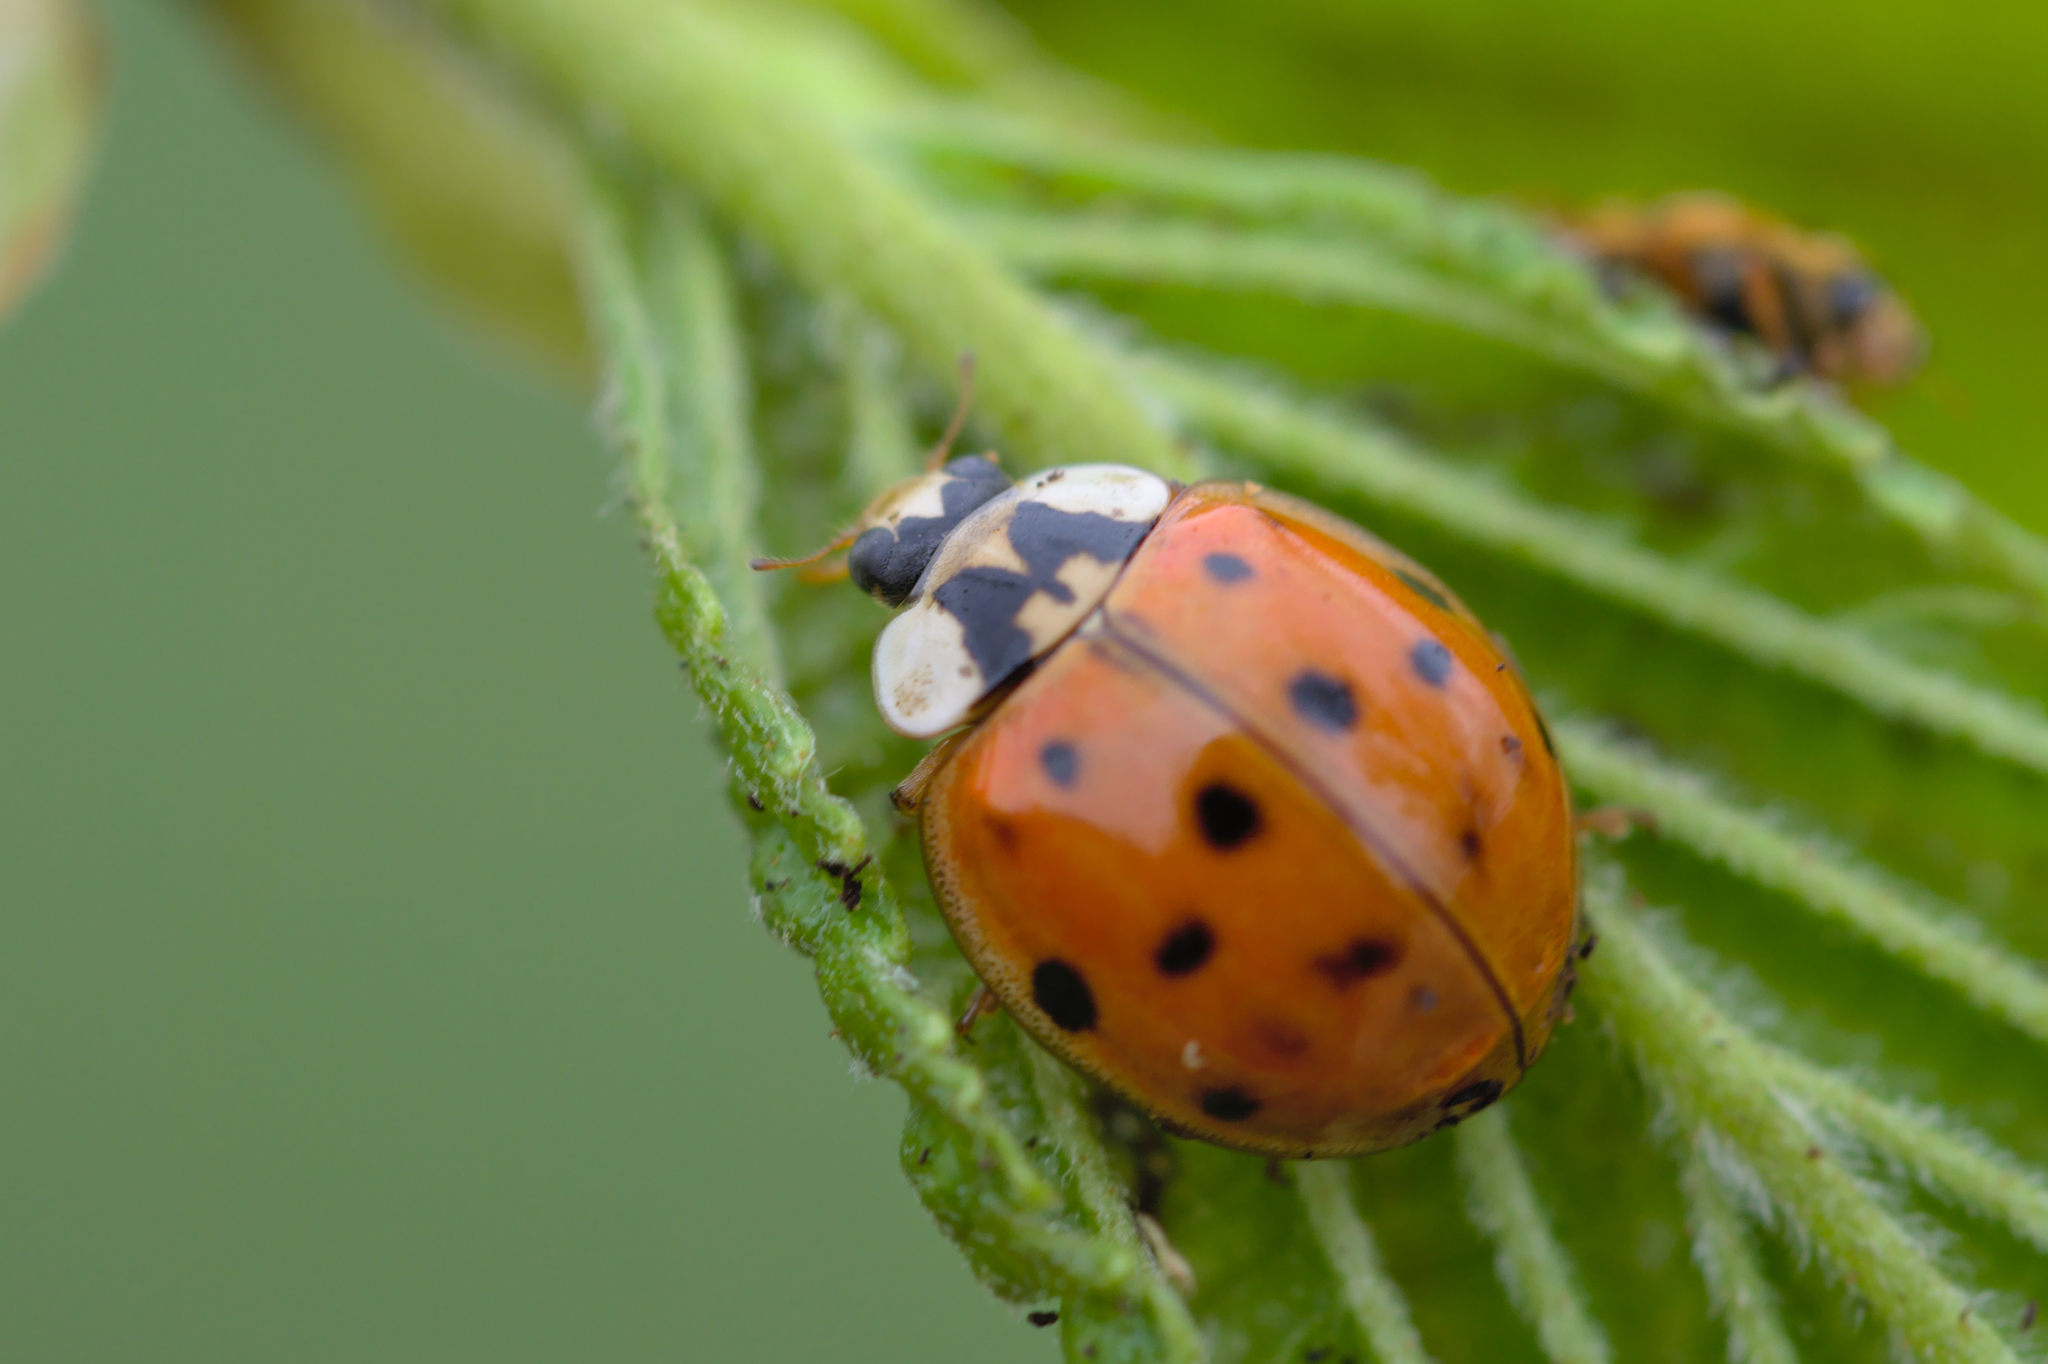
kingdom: Animalia
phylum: Arthropoda
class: Insecta
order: Coleoptera
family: Coccinellidae
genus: Harmonia
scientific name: Harmonia axyridis
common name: Harlequin ladybird
